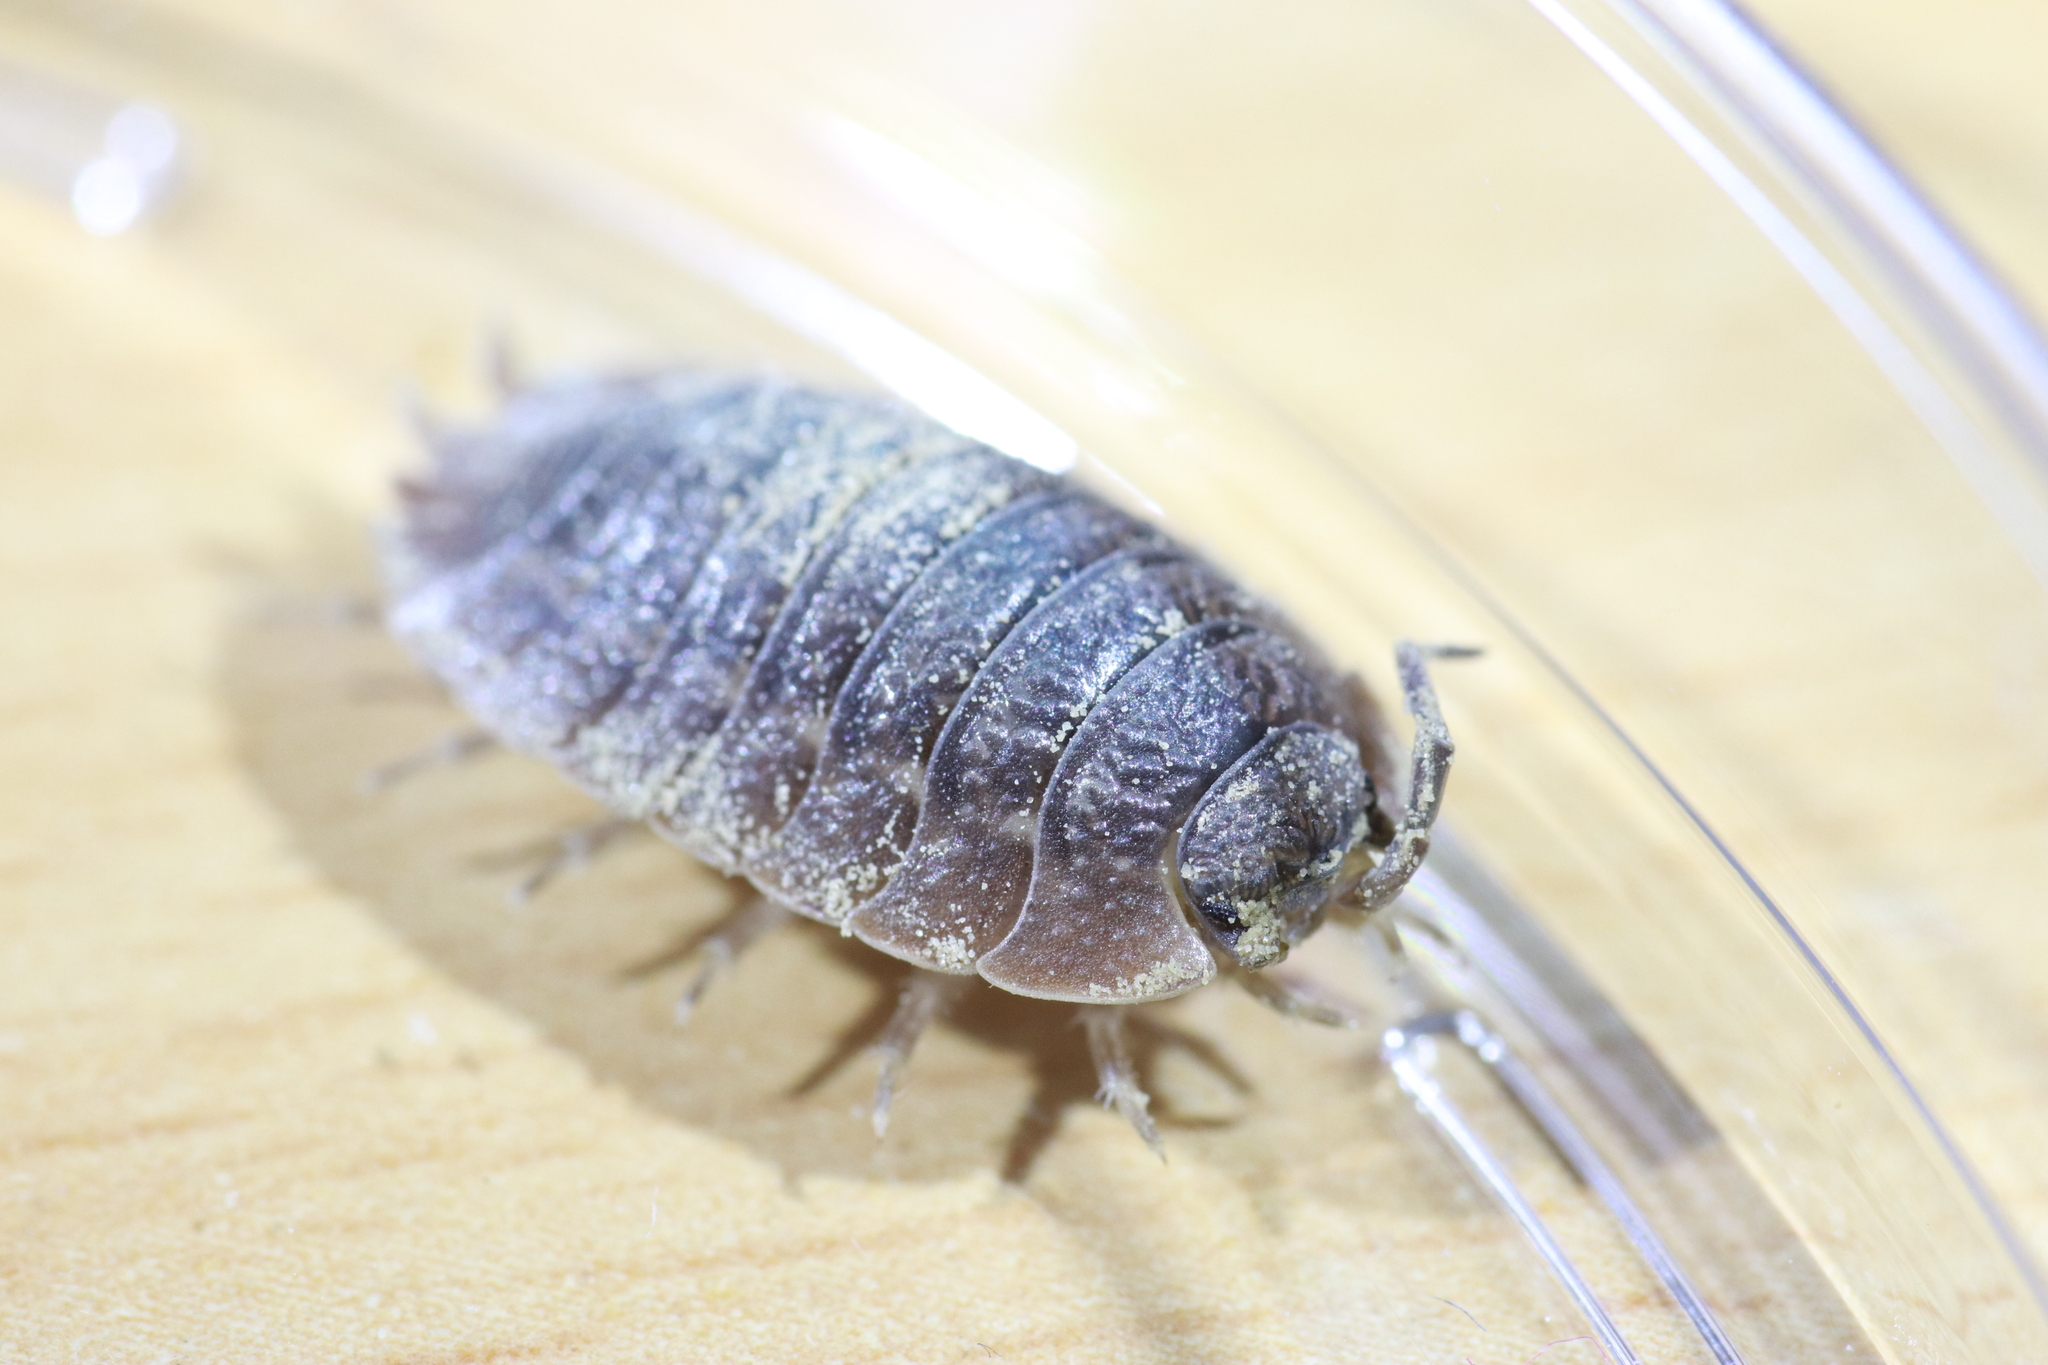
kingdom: Animalia
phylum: Arthropoda
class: Malacostraca
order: Isopoda
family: Porcellionidae
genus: Porcellio
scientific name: Porcellio dilatatus
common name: Isopod
